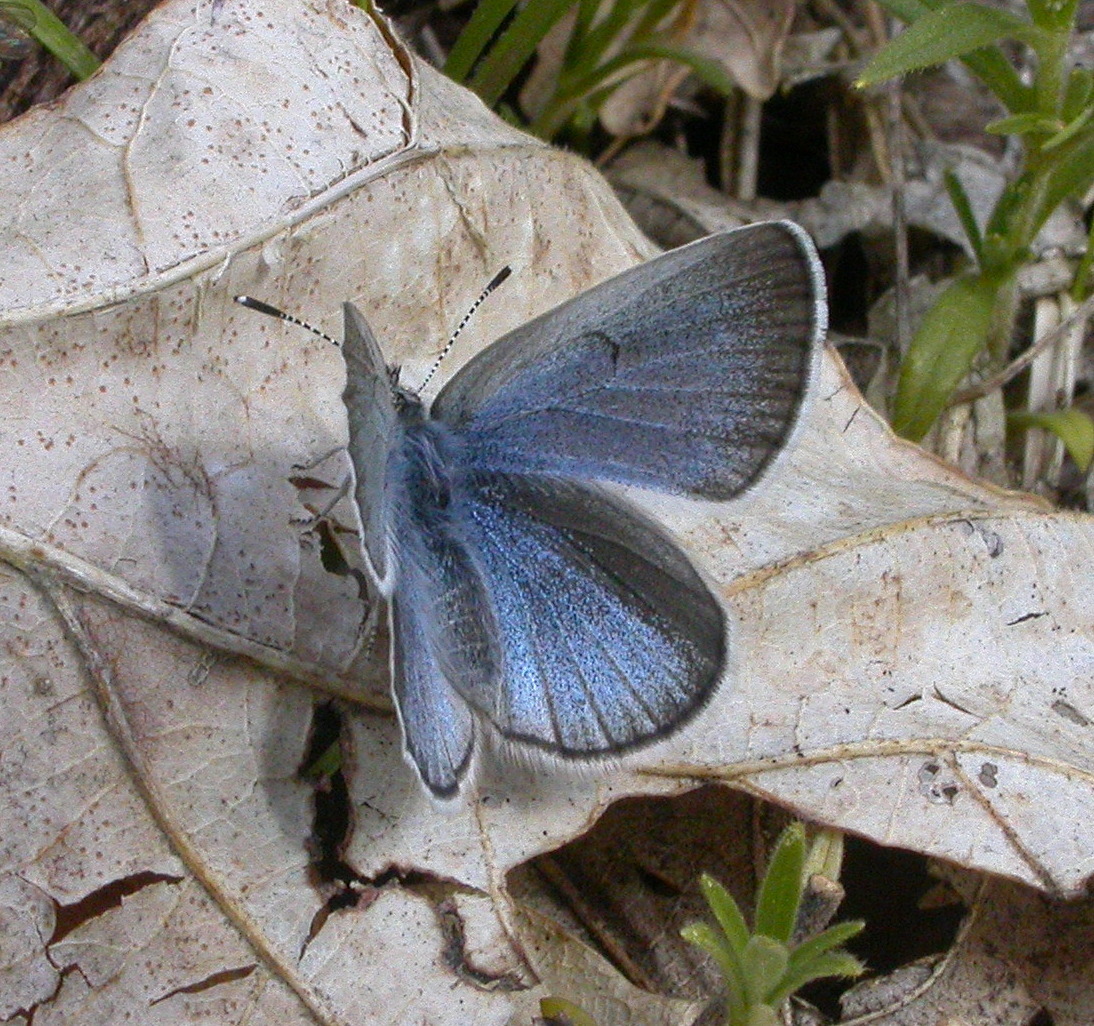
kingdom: Animalia
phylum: Arthropoda
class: Insecta
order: Lepidoptera
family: Lycaenidae
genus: Glaucopsyche
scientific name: Glaucopsyche lygdamus
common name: Silvery blue
